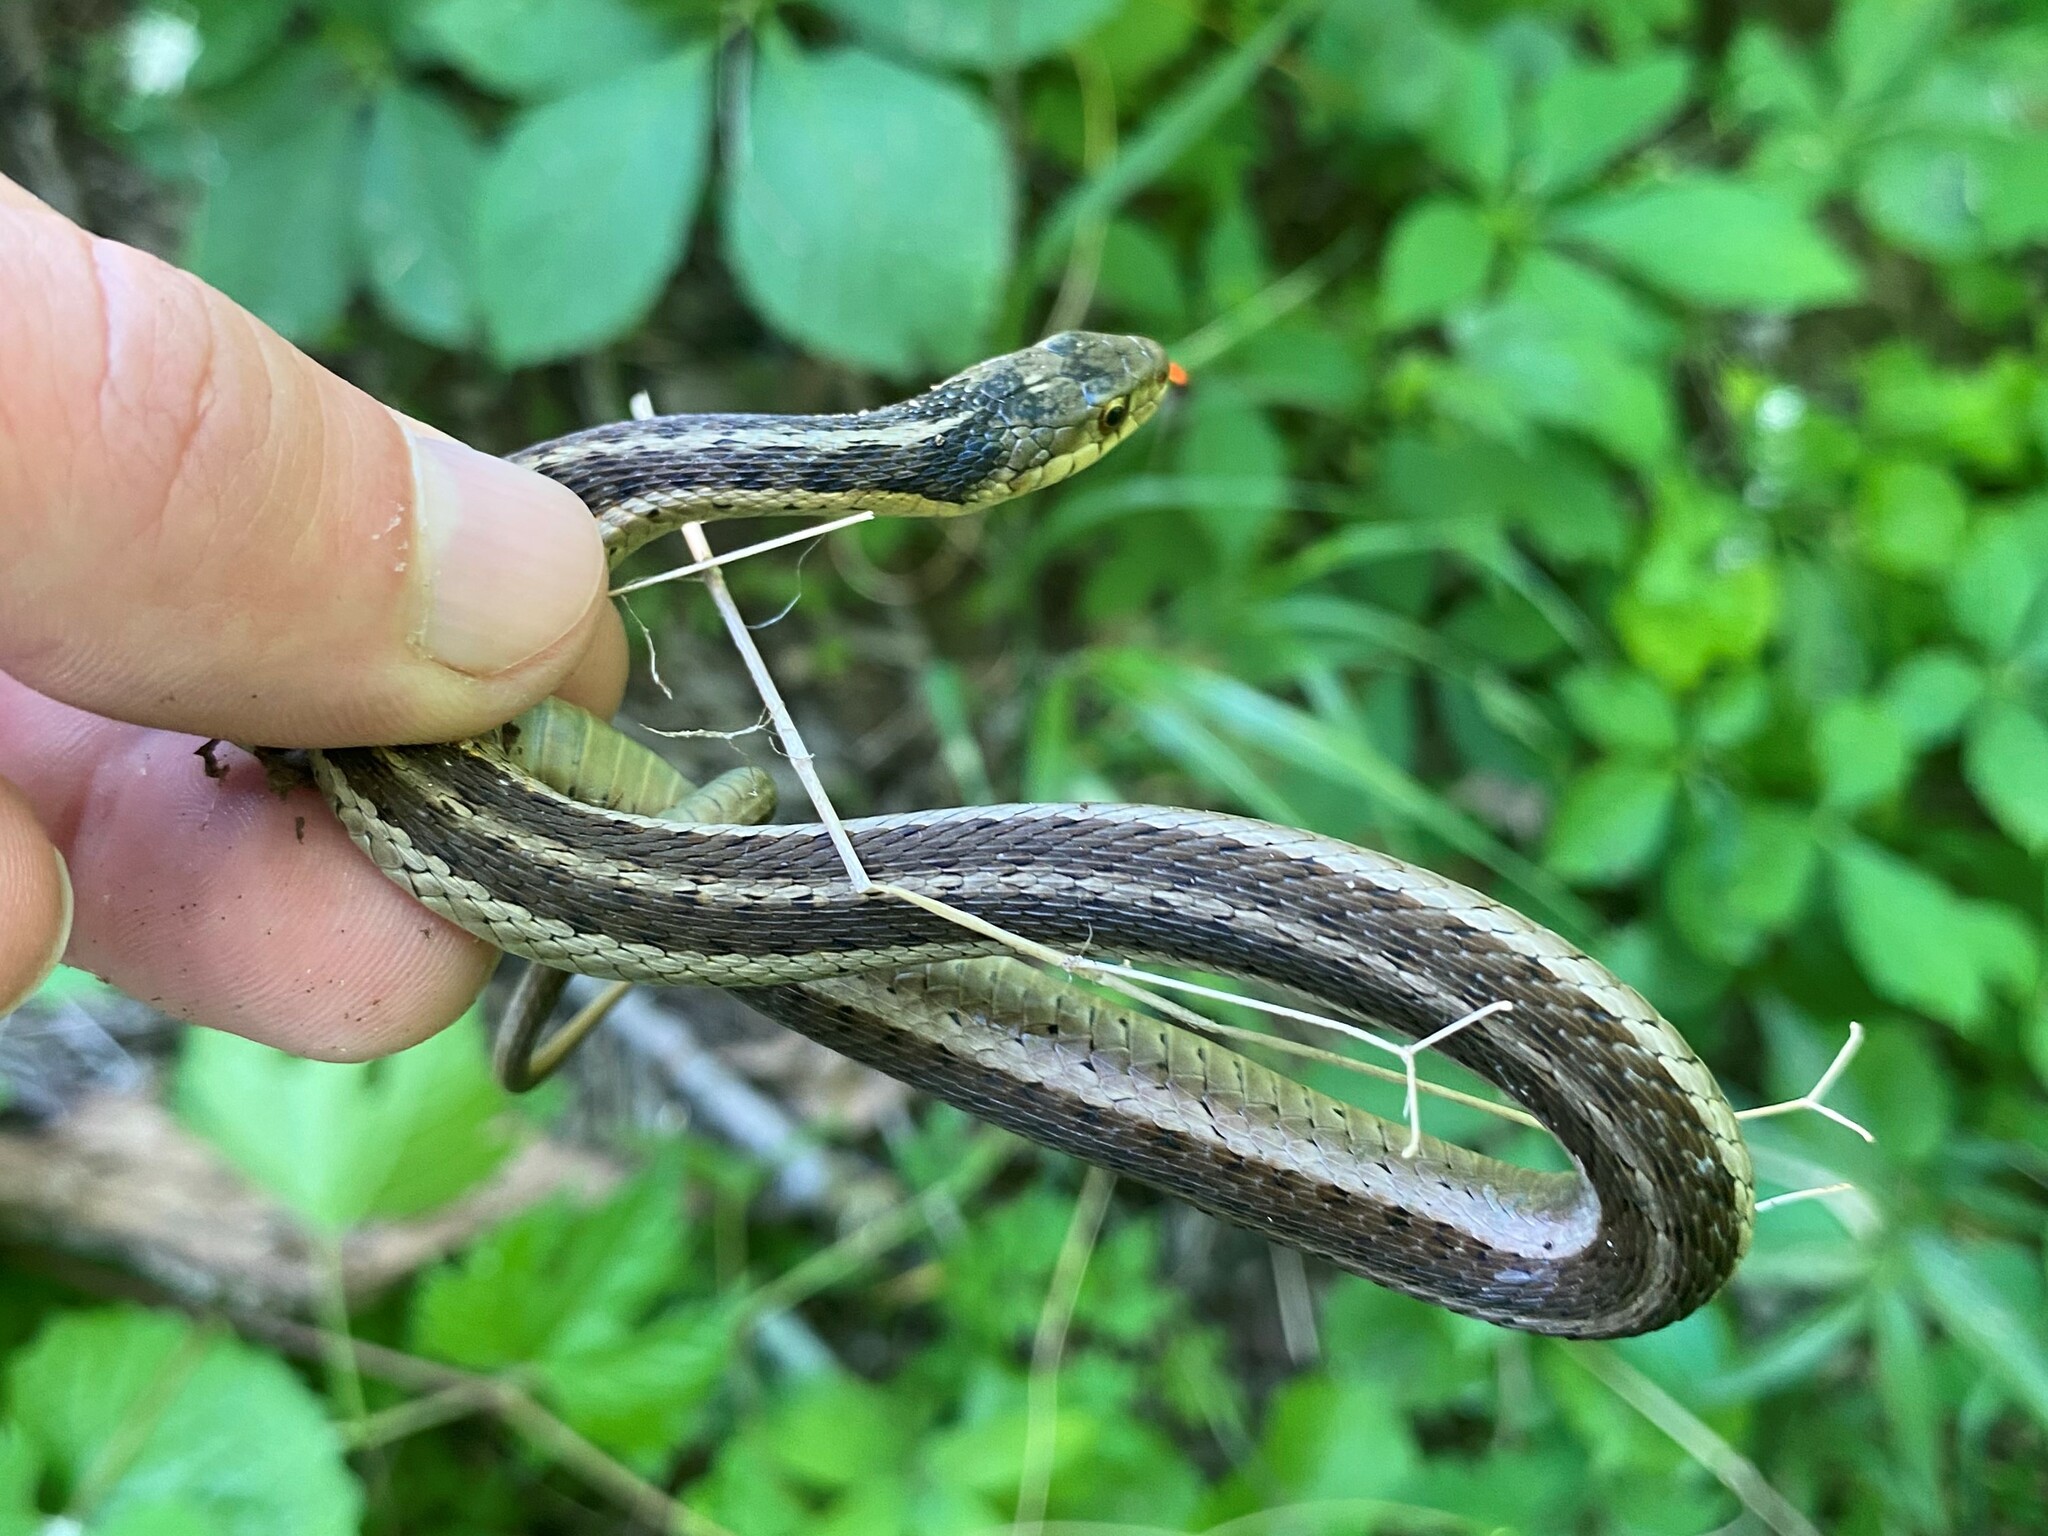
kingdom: Animalia
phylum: Chordata
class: Squamata
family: Colubridae
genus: Thamnophis
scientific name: Thamnophis sirtalis
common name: Common garter snake
